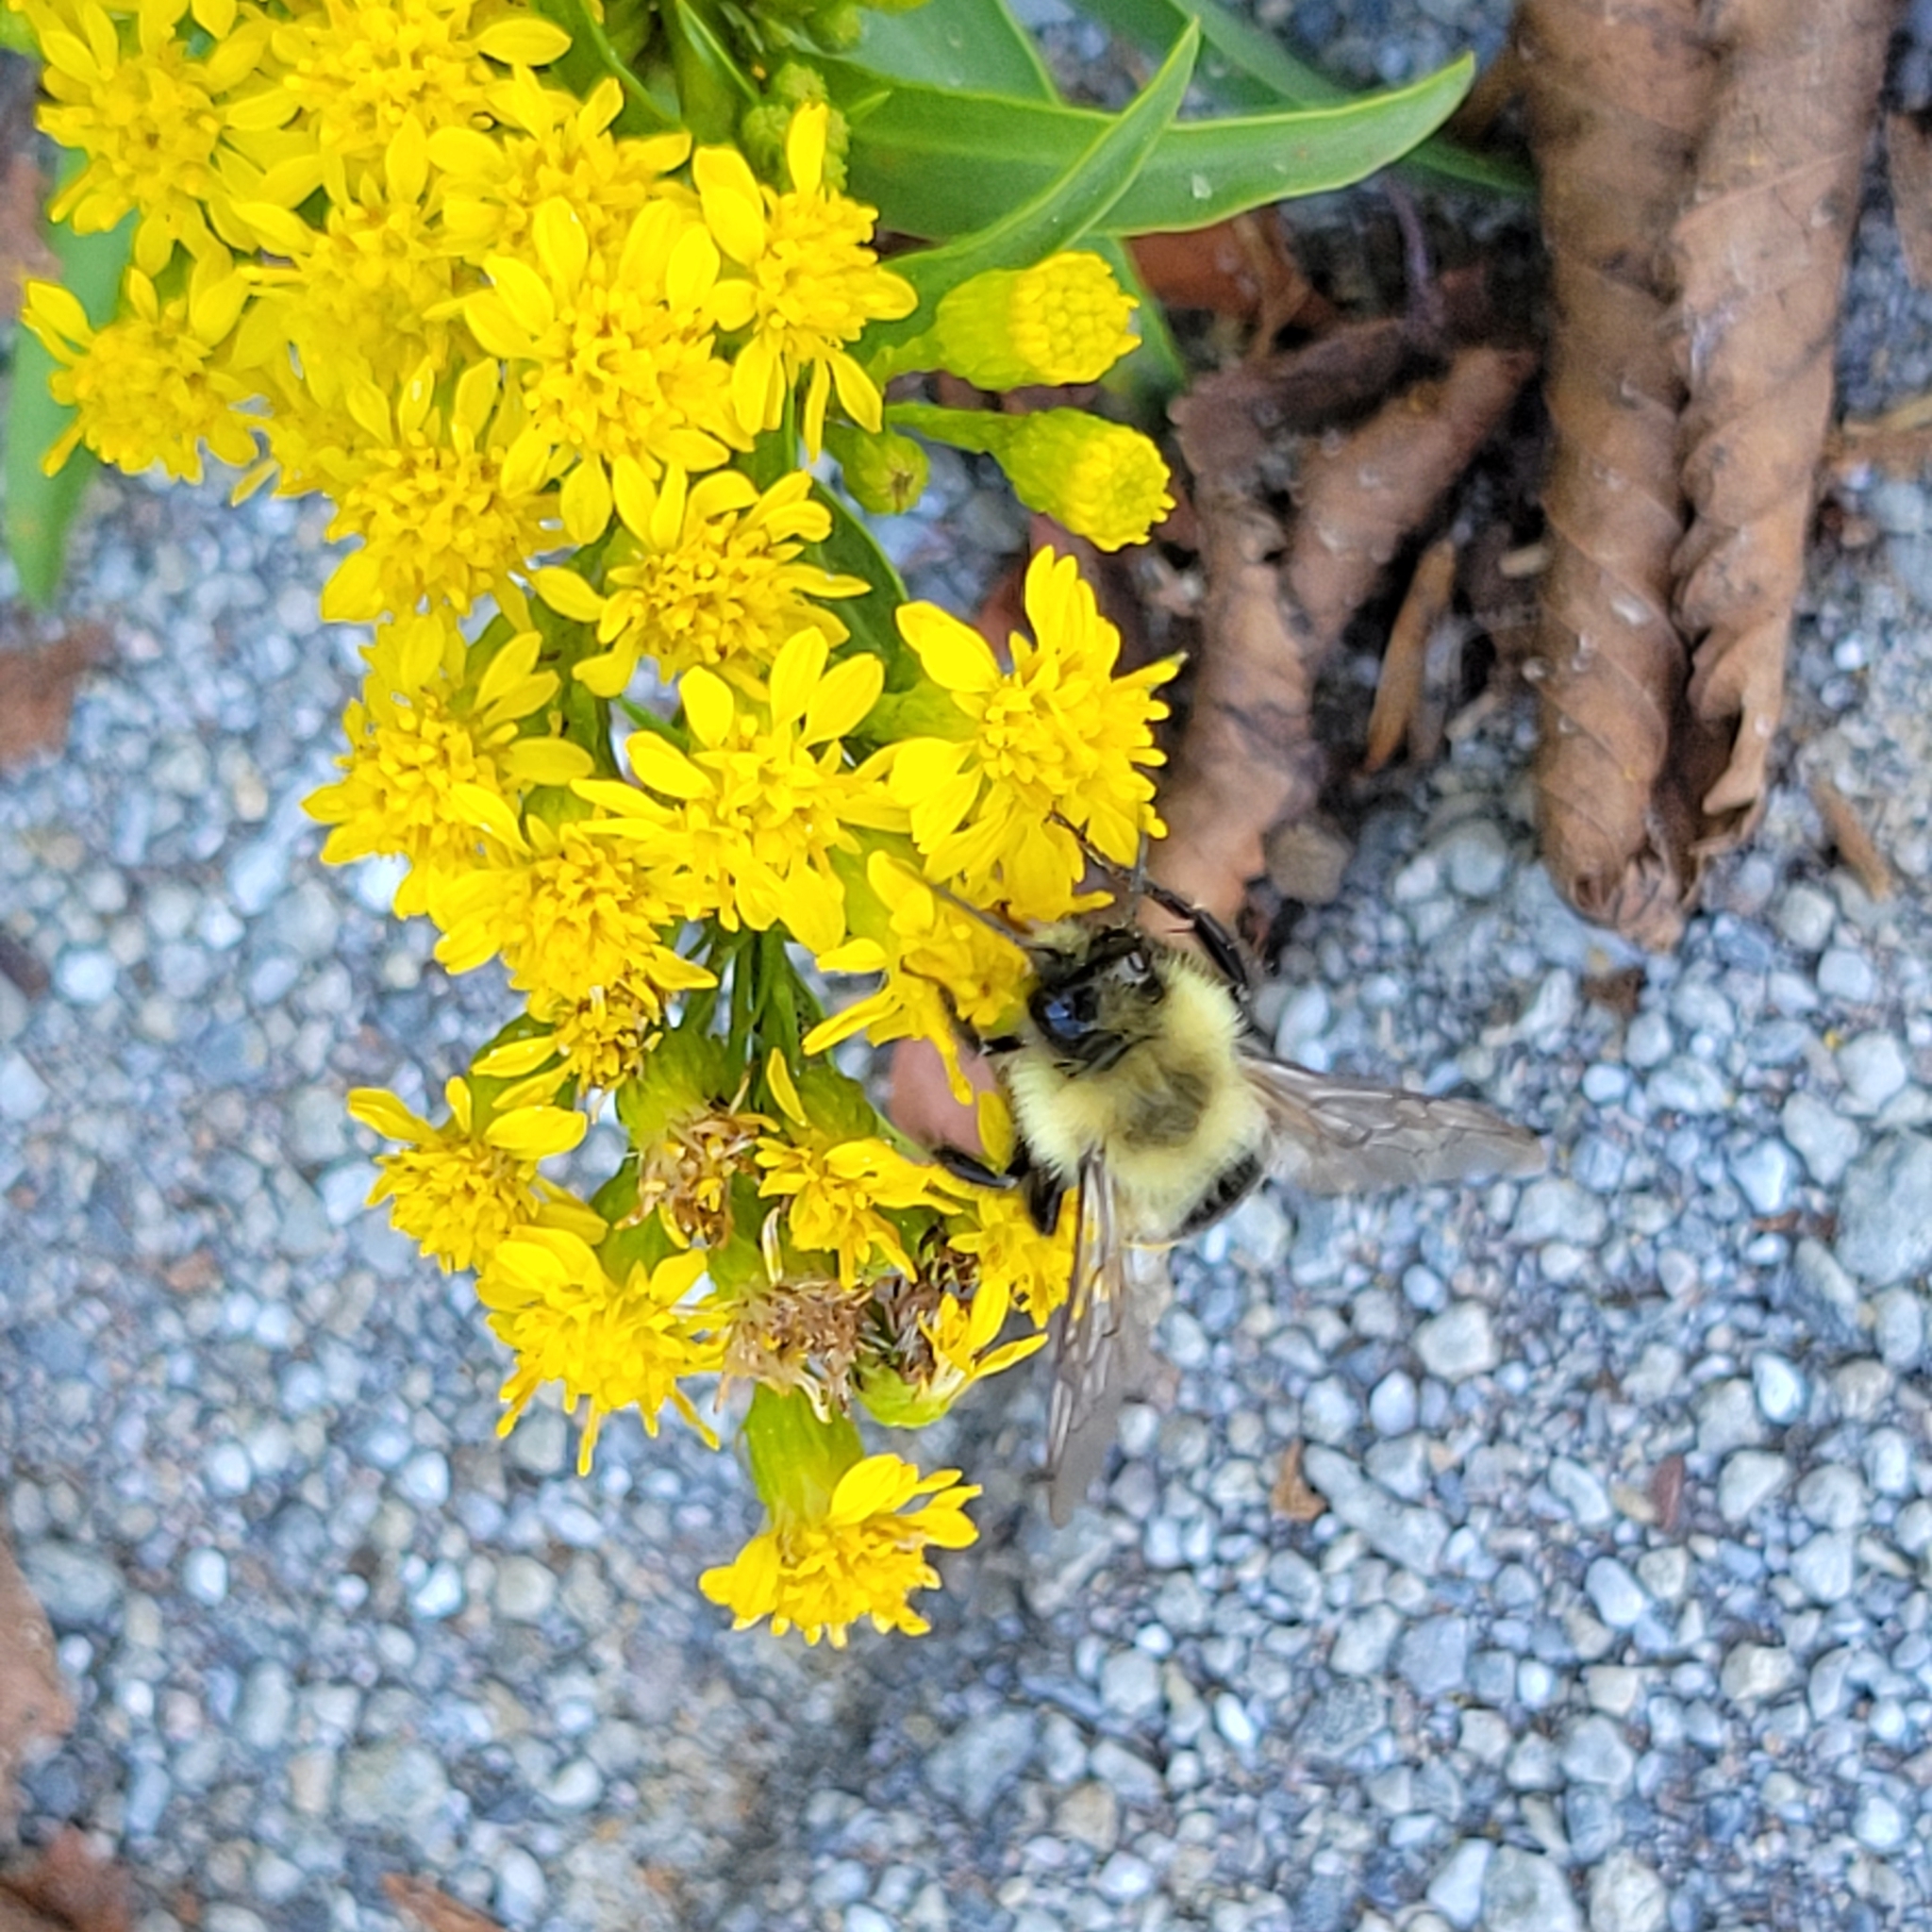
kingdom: Animalia
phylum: Arthropoda
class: Insecta
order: Hymenoptera
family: Apidae
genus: Bombus
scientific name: Bombus impatiens
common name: Common eastern bumble bee
